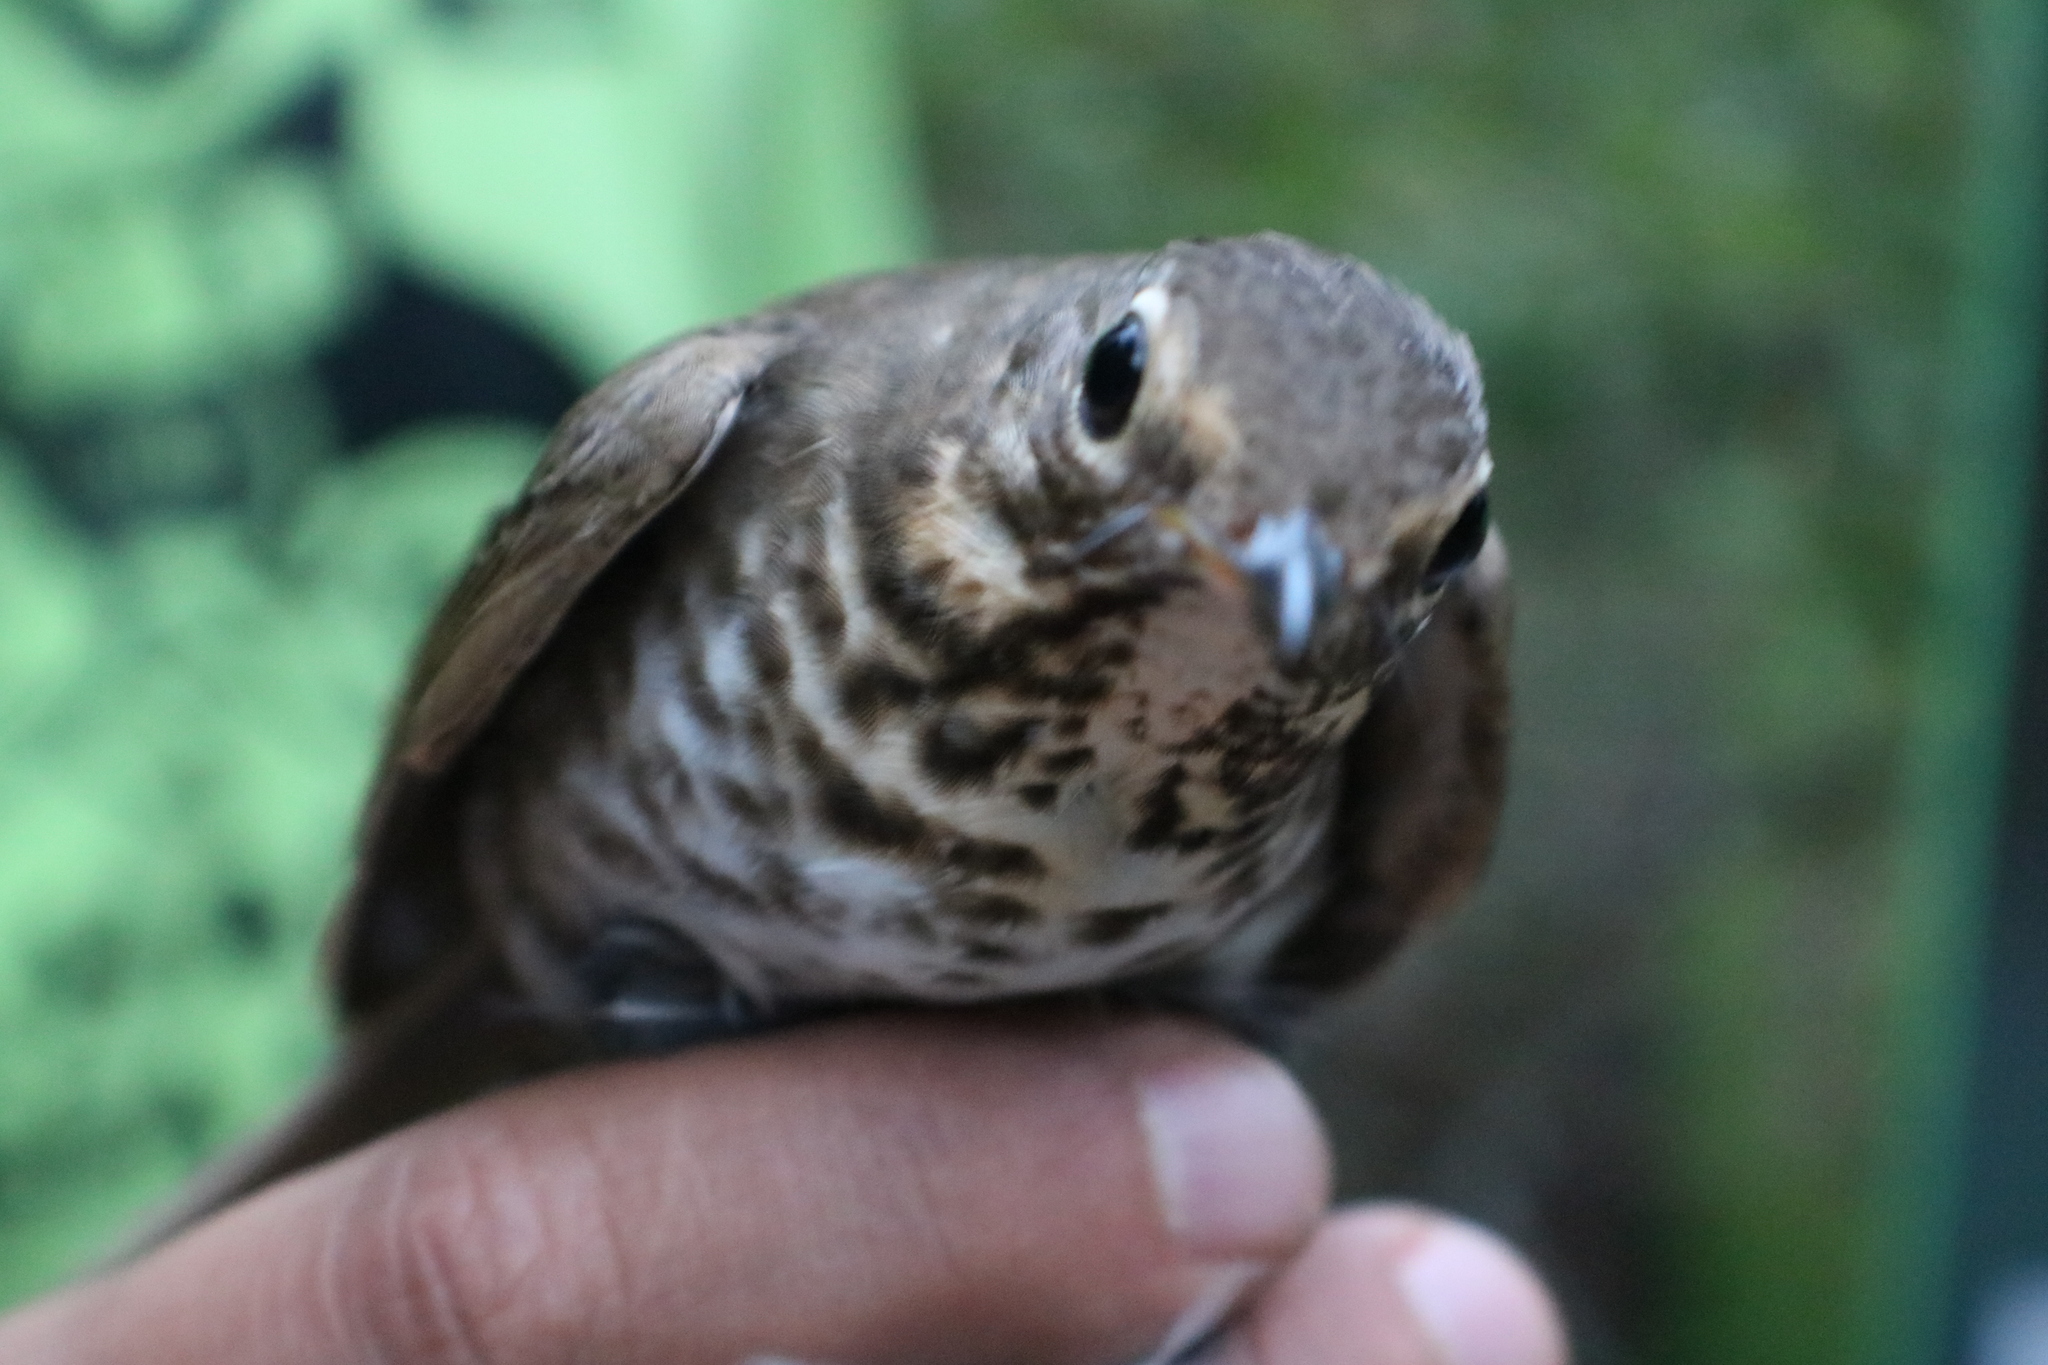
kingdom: Animalia
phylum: Chordata
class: Aves
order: Passeriformes
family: Turdidae
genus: Catharus
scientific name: Catharus ustulatus
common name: Swainson's thrush
